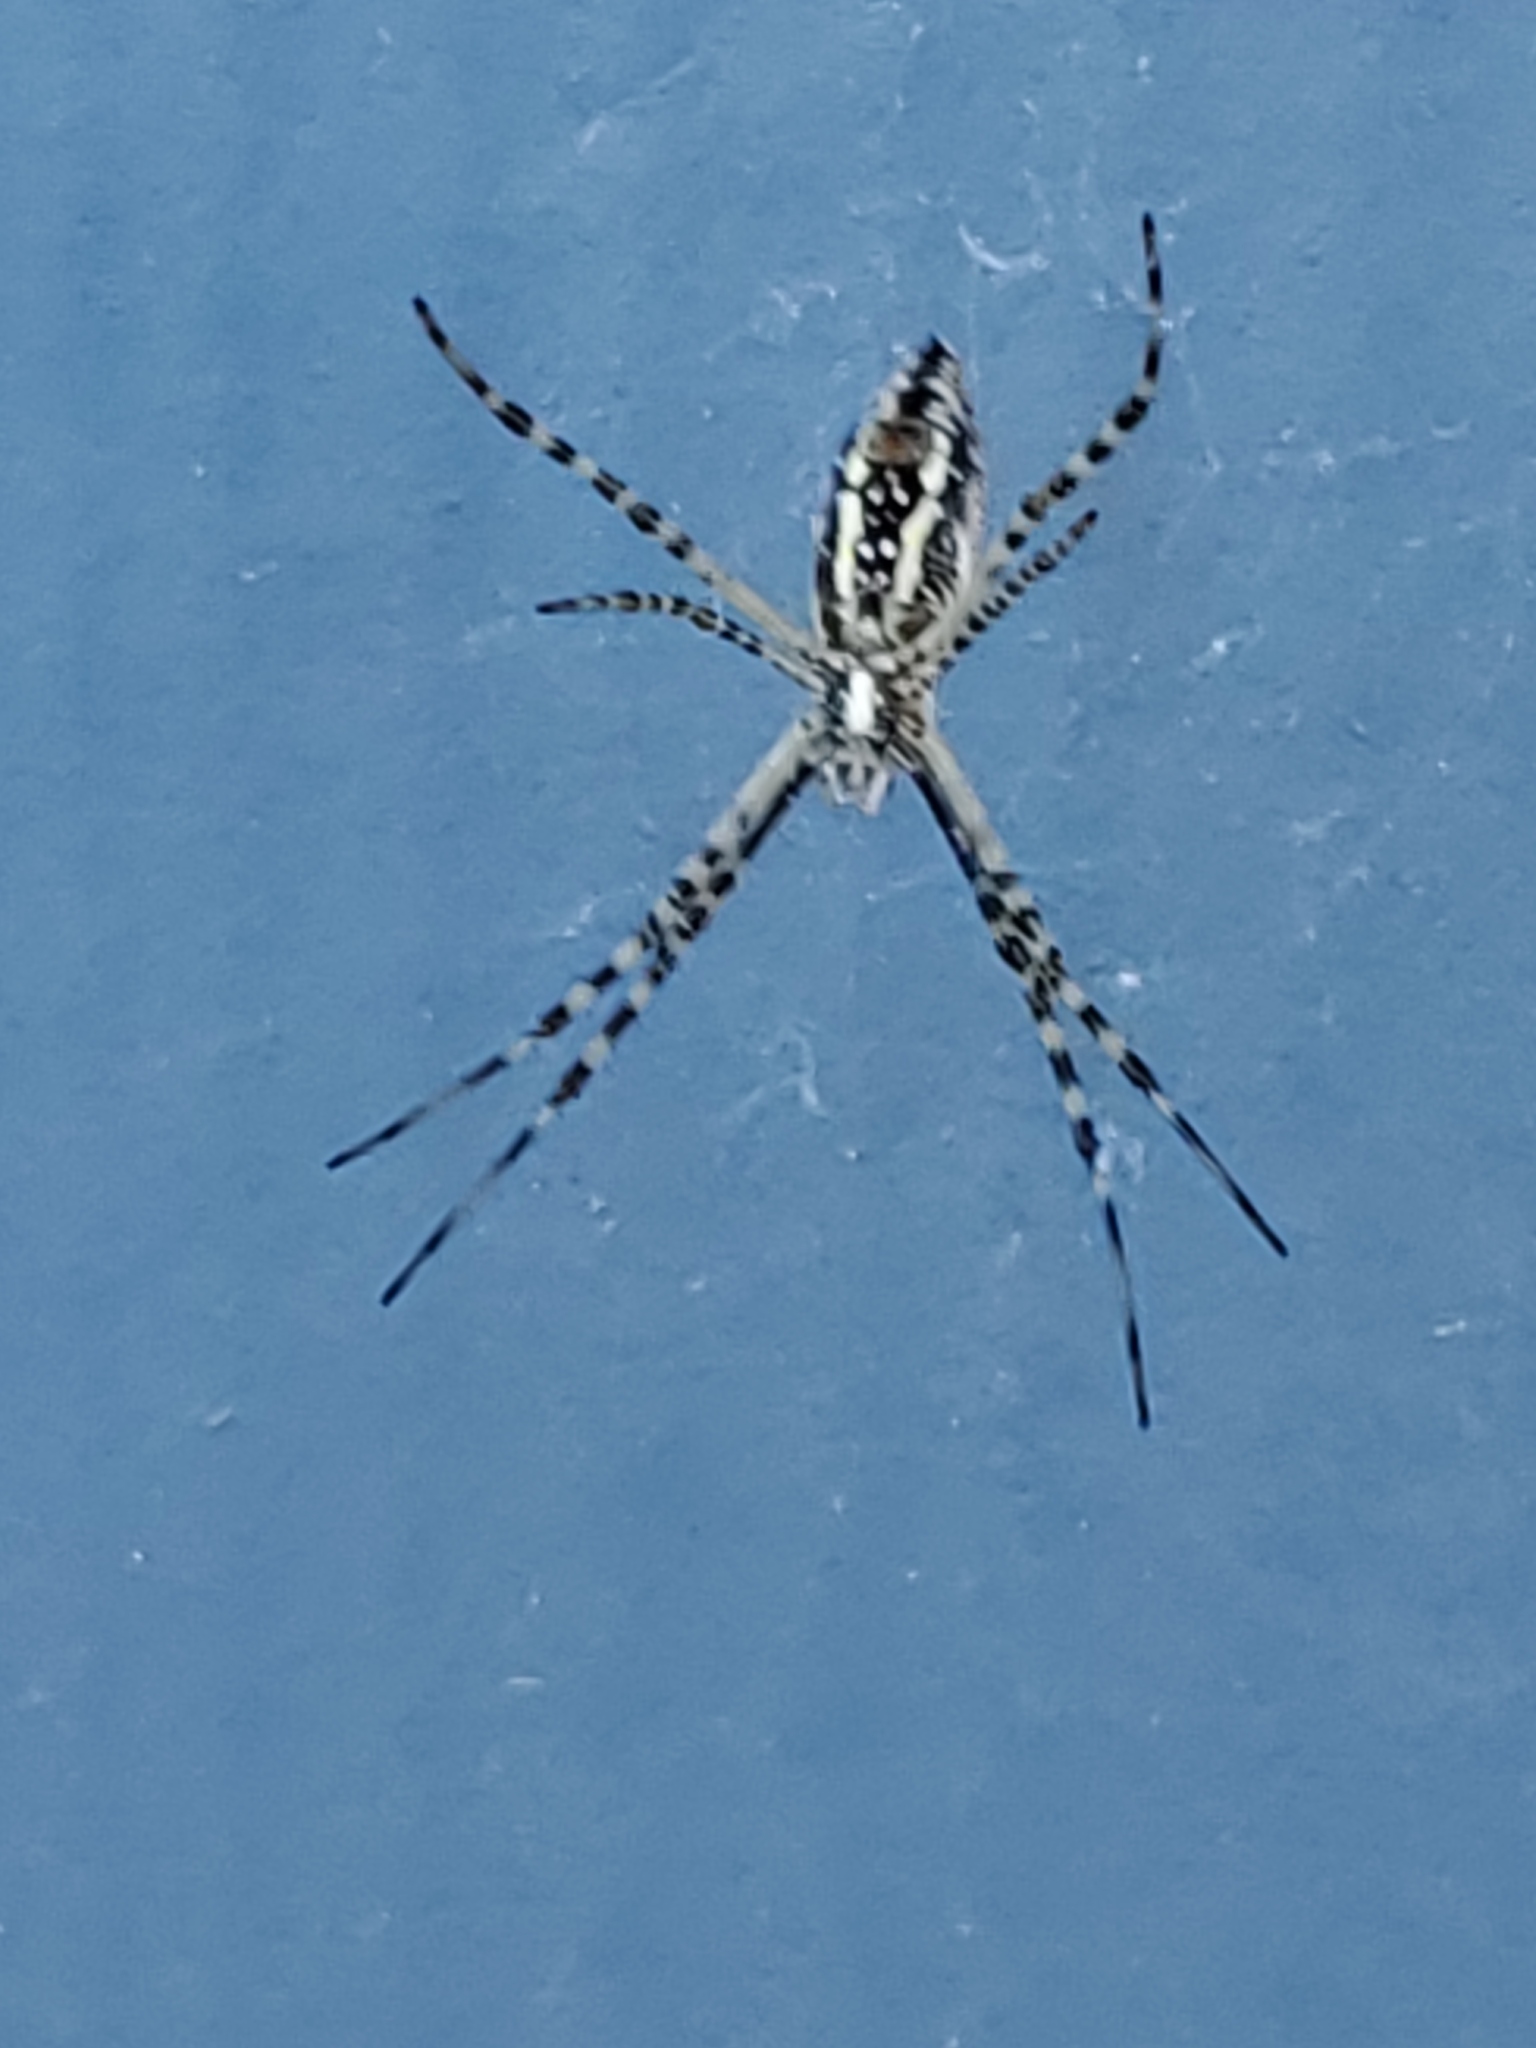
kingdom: Animalia
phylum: Arthropoda
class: Arachnida
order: Araneae
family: Araneidae
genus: Argiope
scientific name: Argiope trifasciata
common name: Banded garden spider
